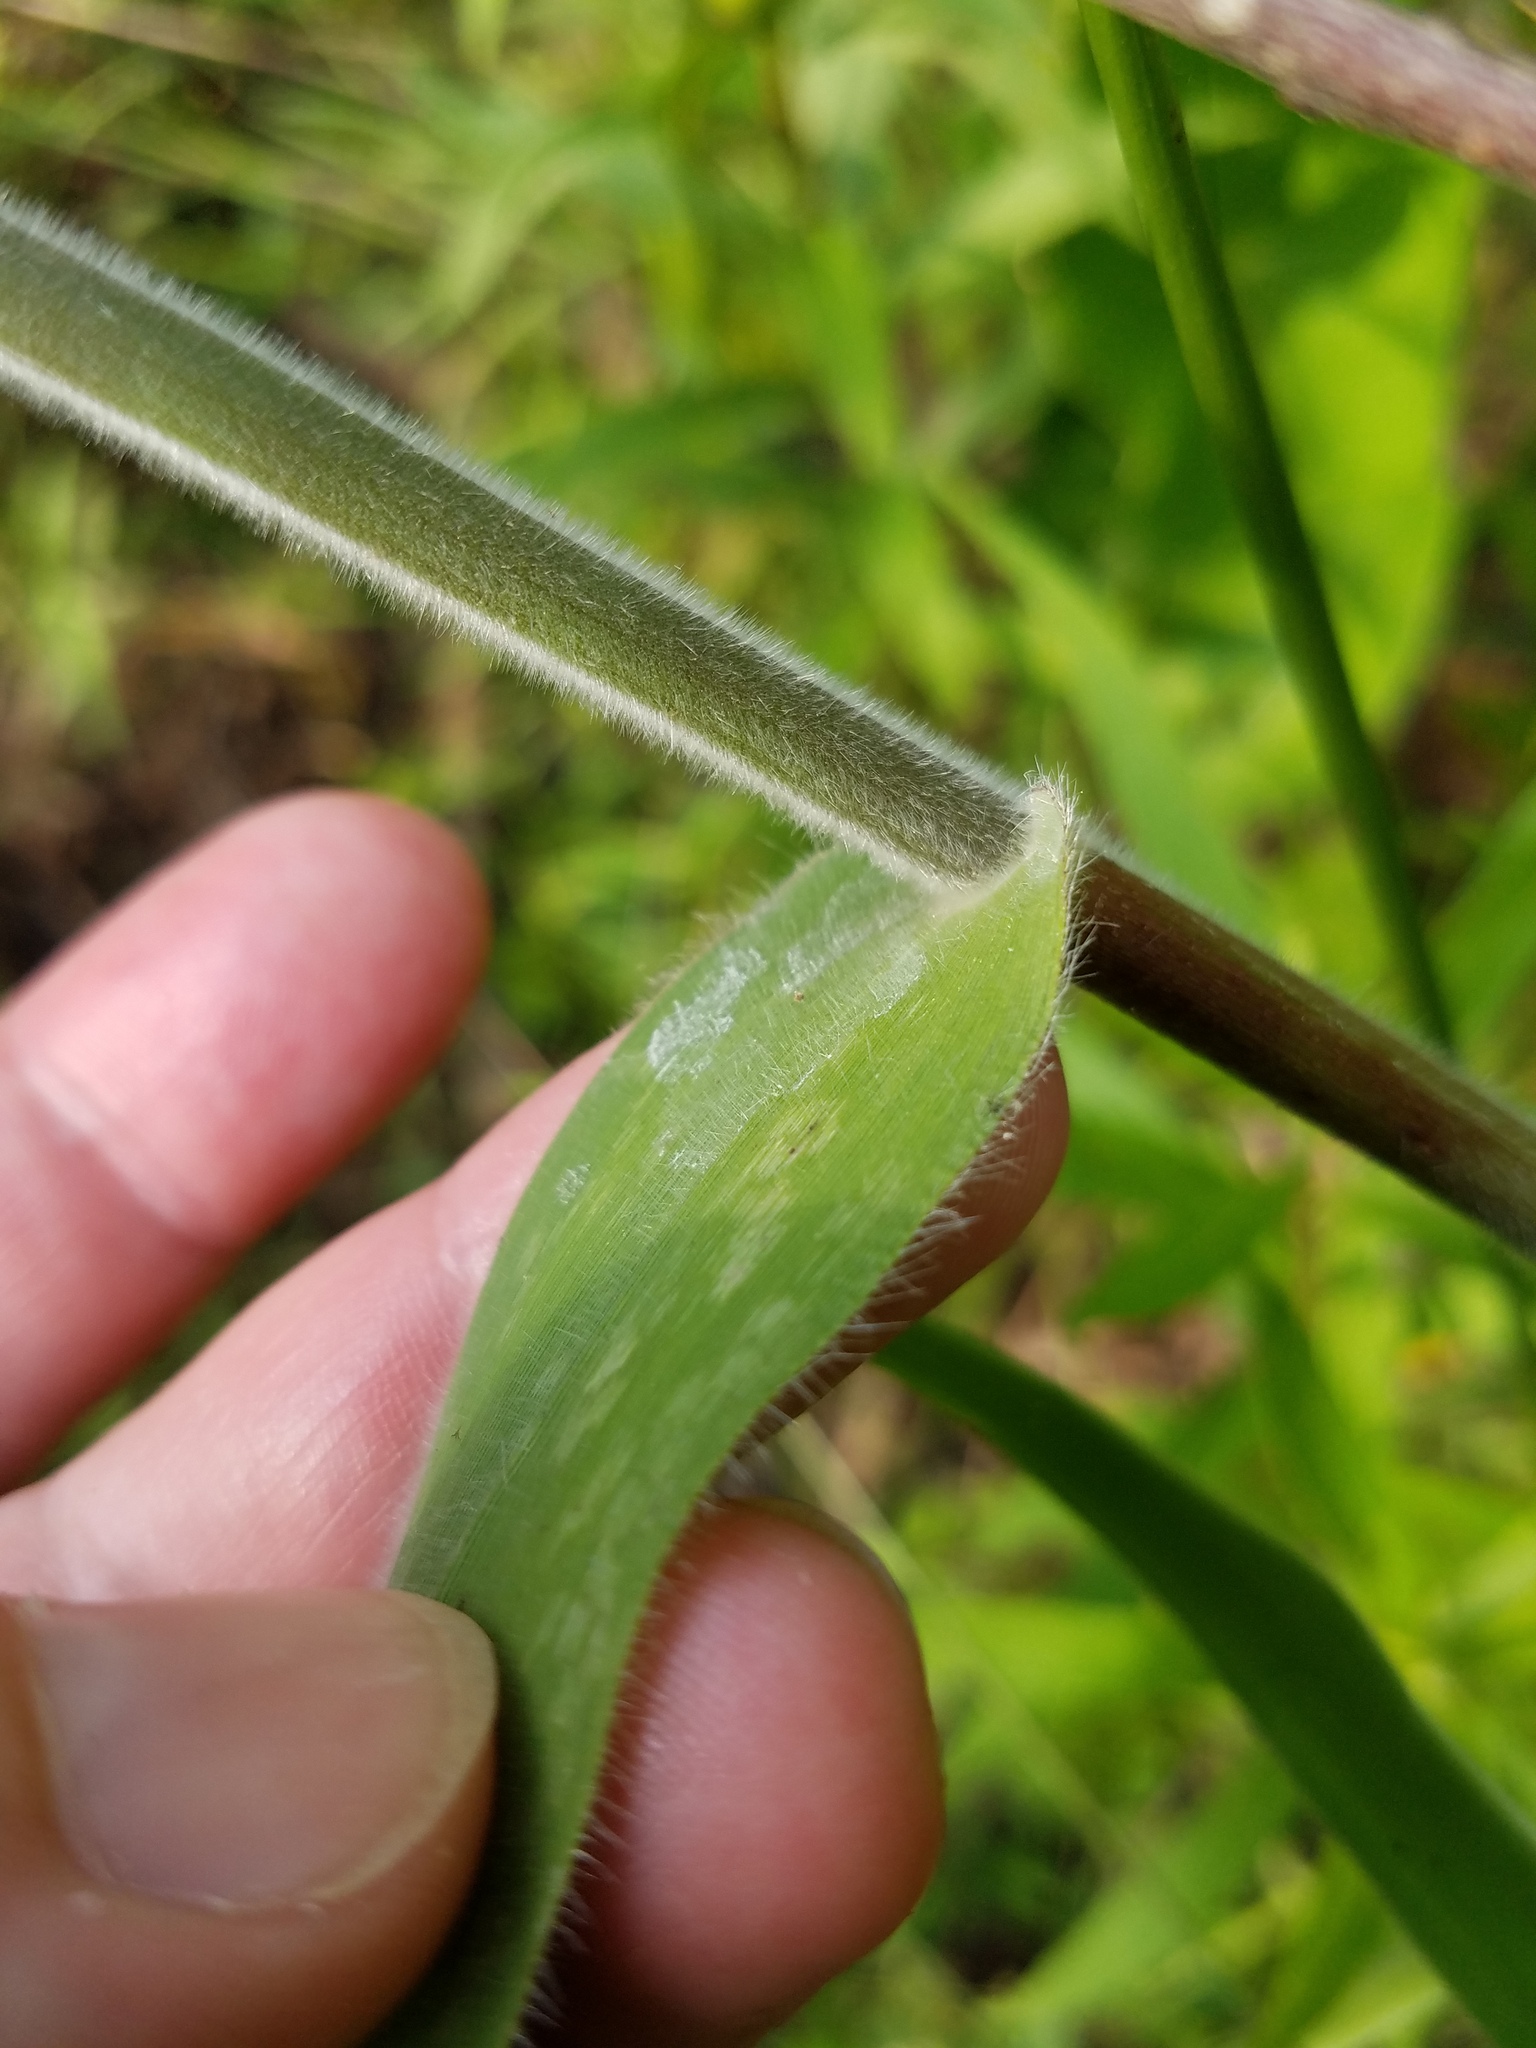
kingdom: Plantae
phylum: Tracheophyta
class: Liliopsida
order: Poales
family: Poaceae
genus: Dichanthelium
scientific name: Dichanthelium scoparium
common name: Velvety panic grass
